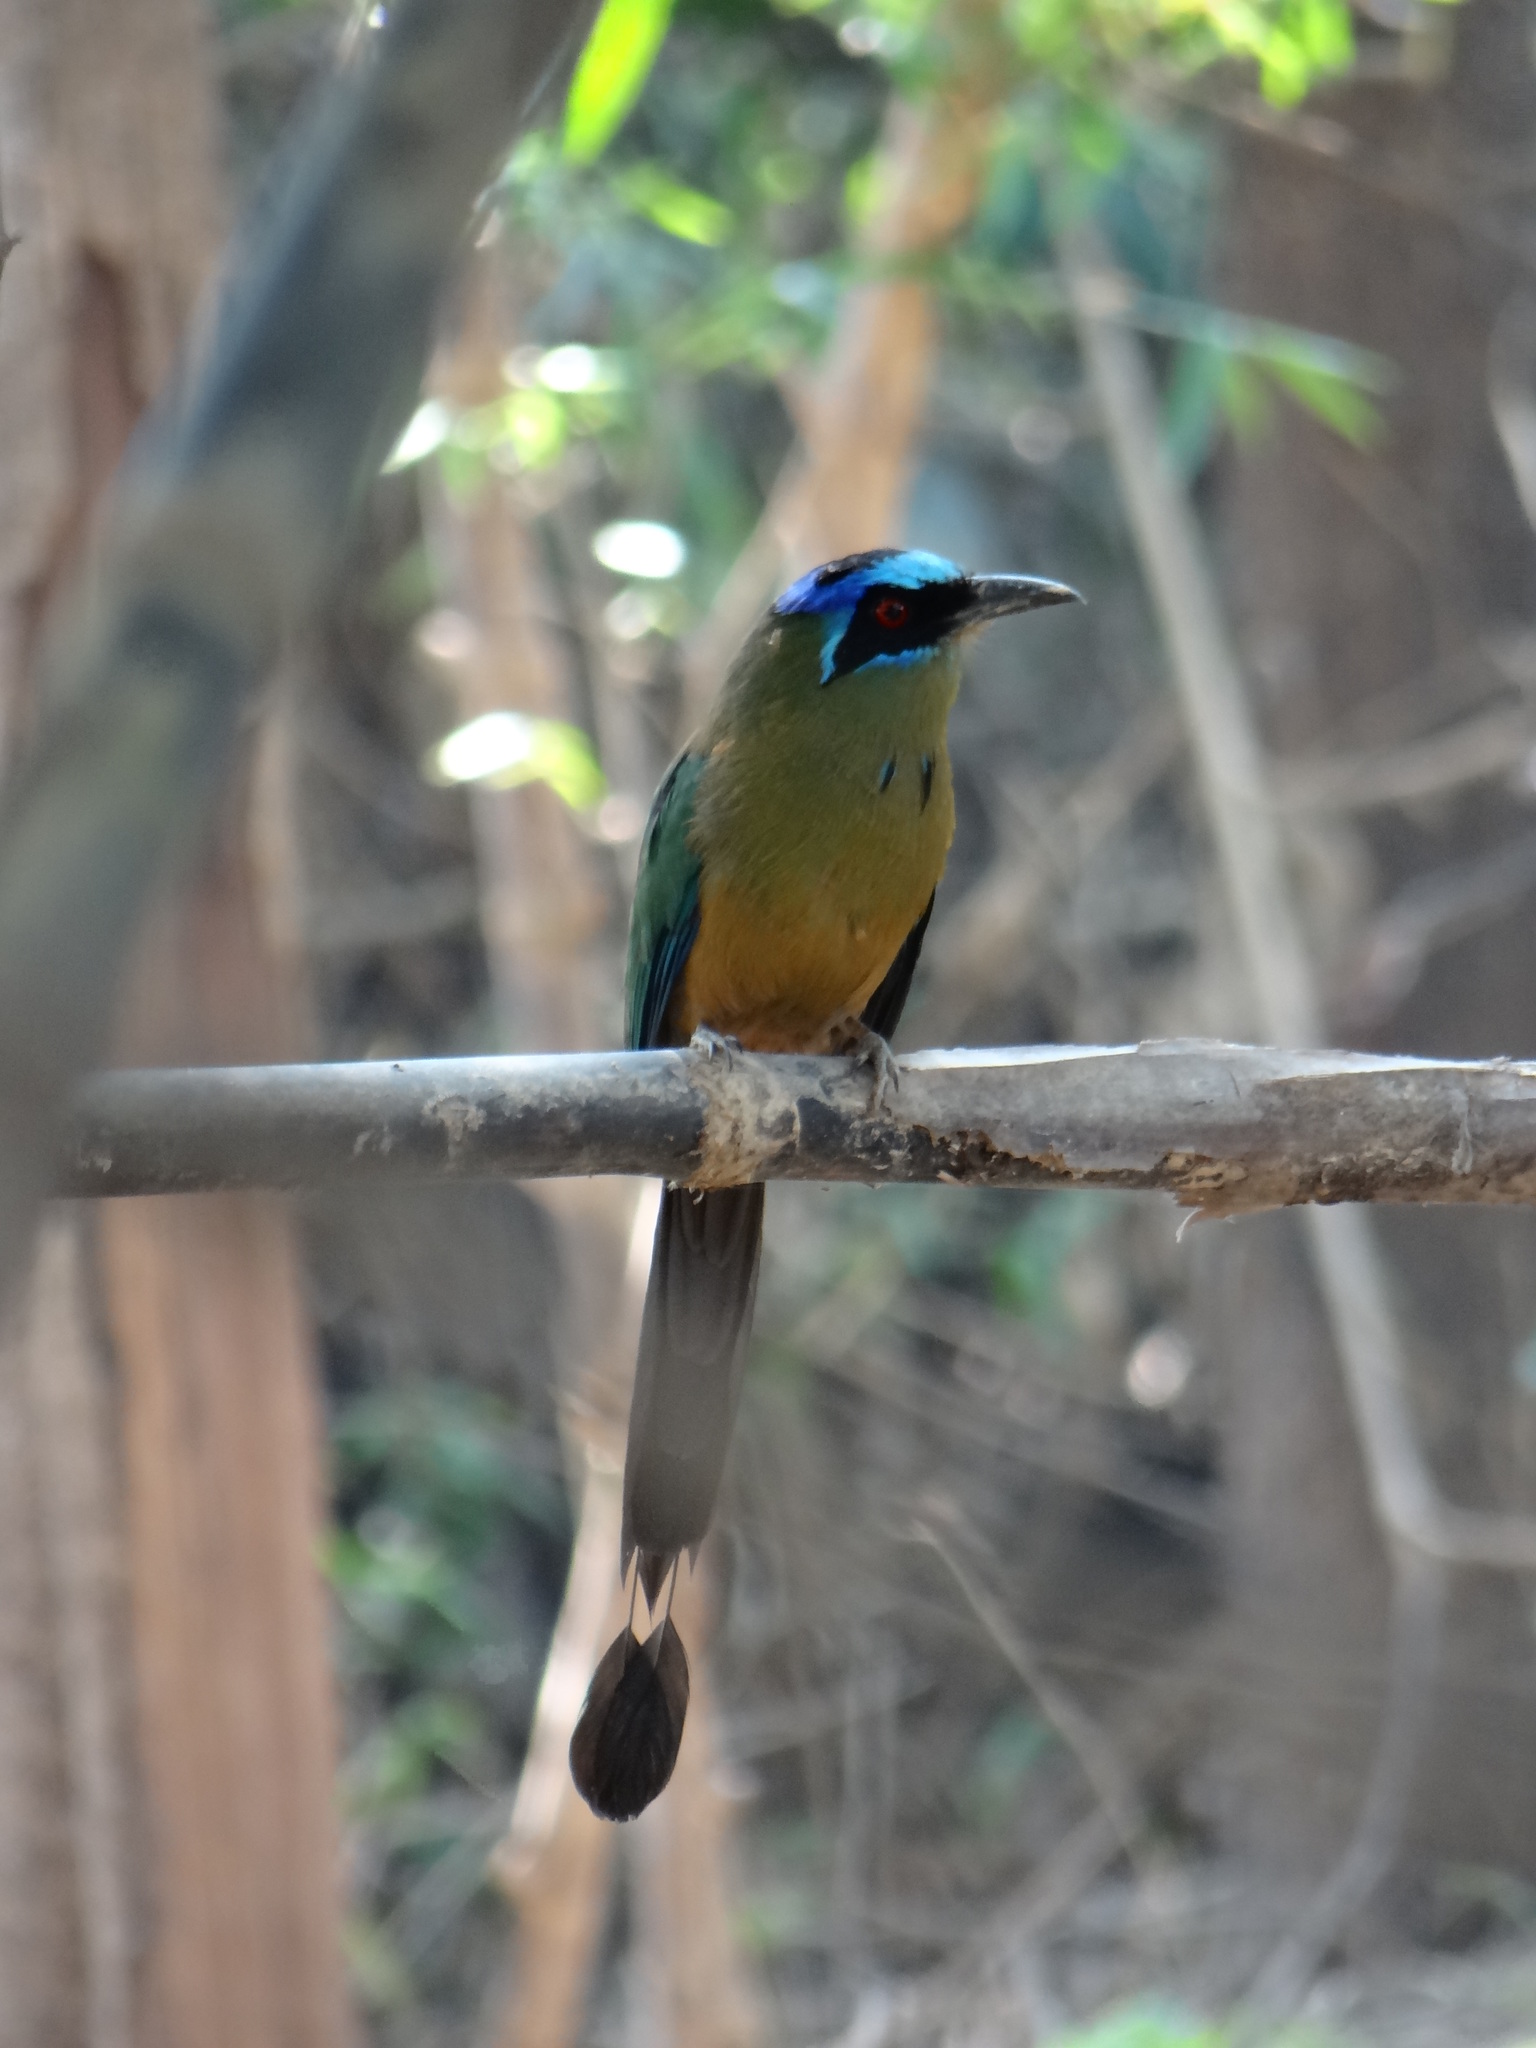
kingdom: Animalia
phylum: Chordata
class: Aves
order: Coraciiformes
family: Momotidae
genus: Momotus
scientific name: Momotus momota
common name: Amazonian motmot
